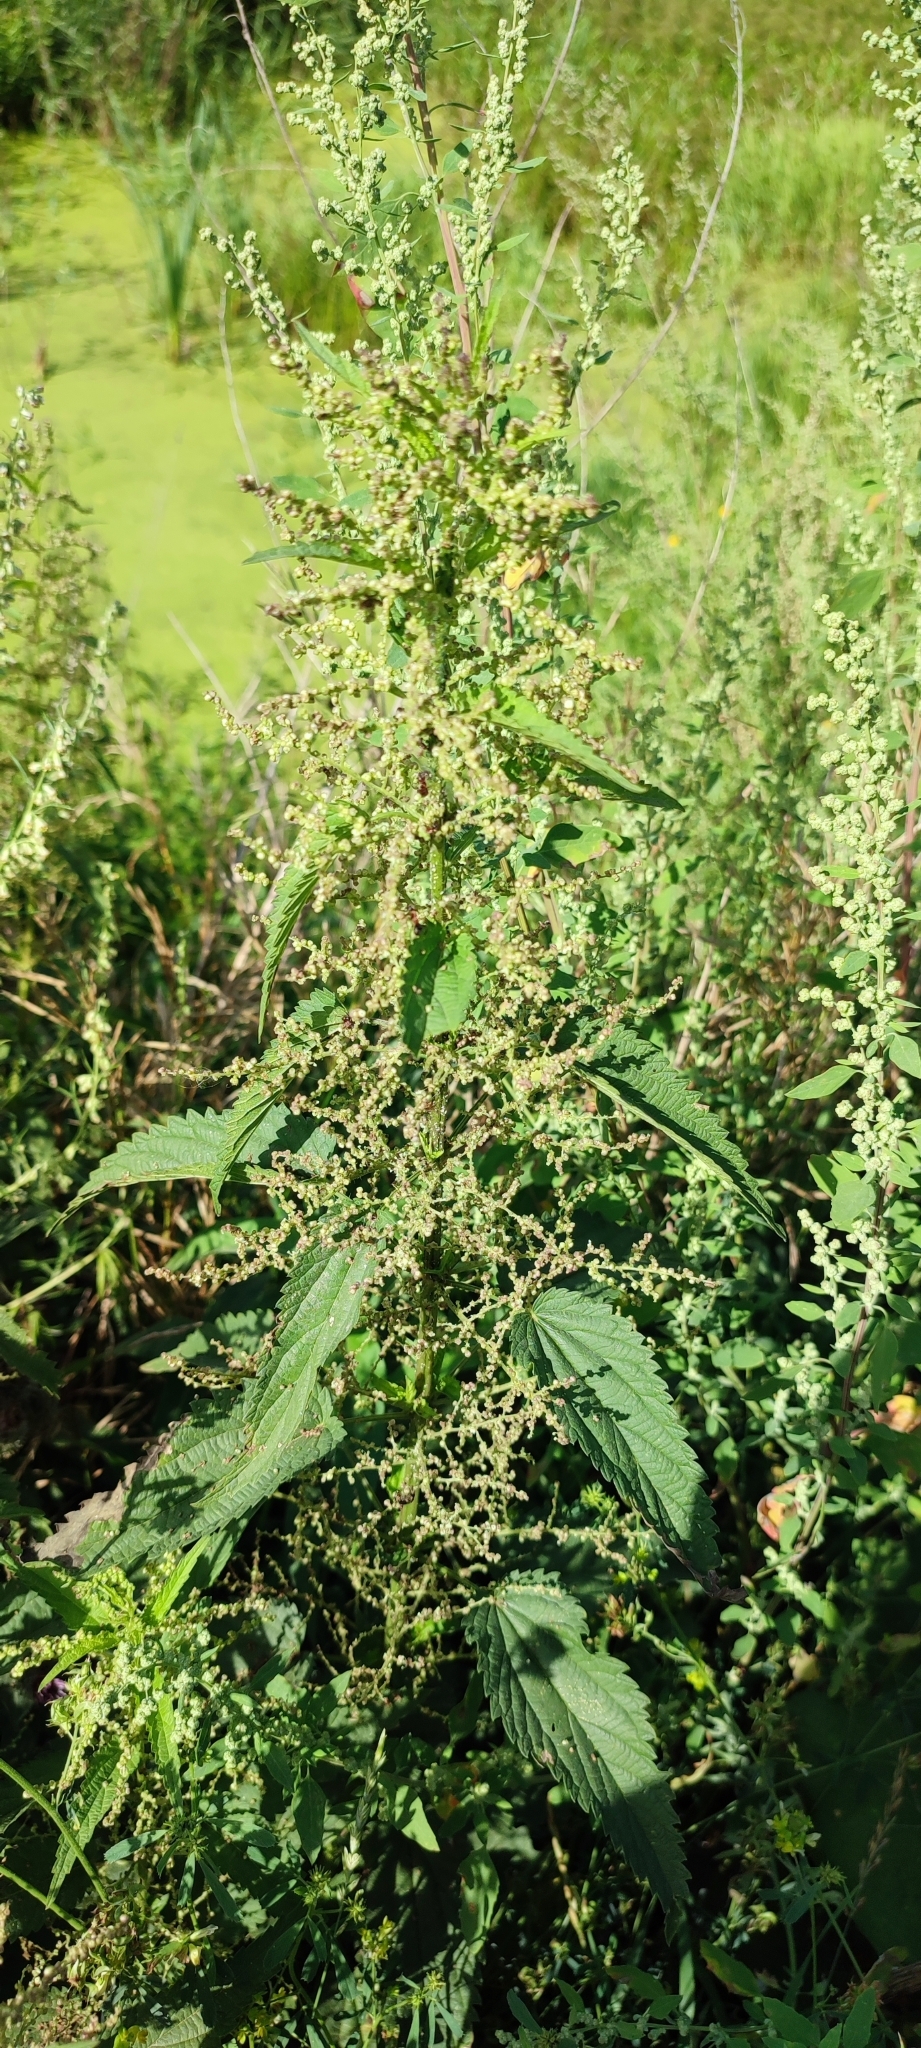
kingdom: Plantae
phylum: Tracheophyta
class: Magnoliopsida
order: Rosales
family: Urticaceae
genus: Urtica
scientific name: Urtica dioica
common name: Common nettle
